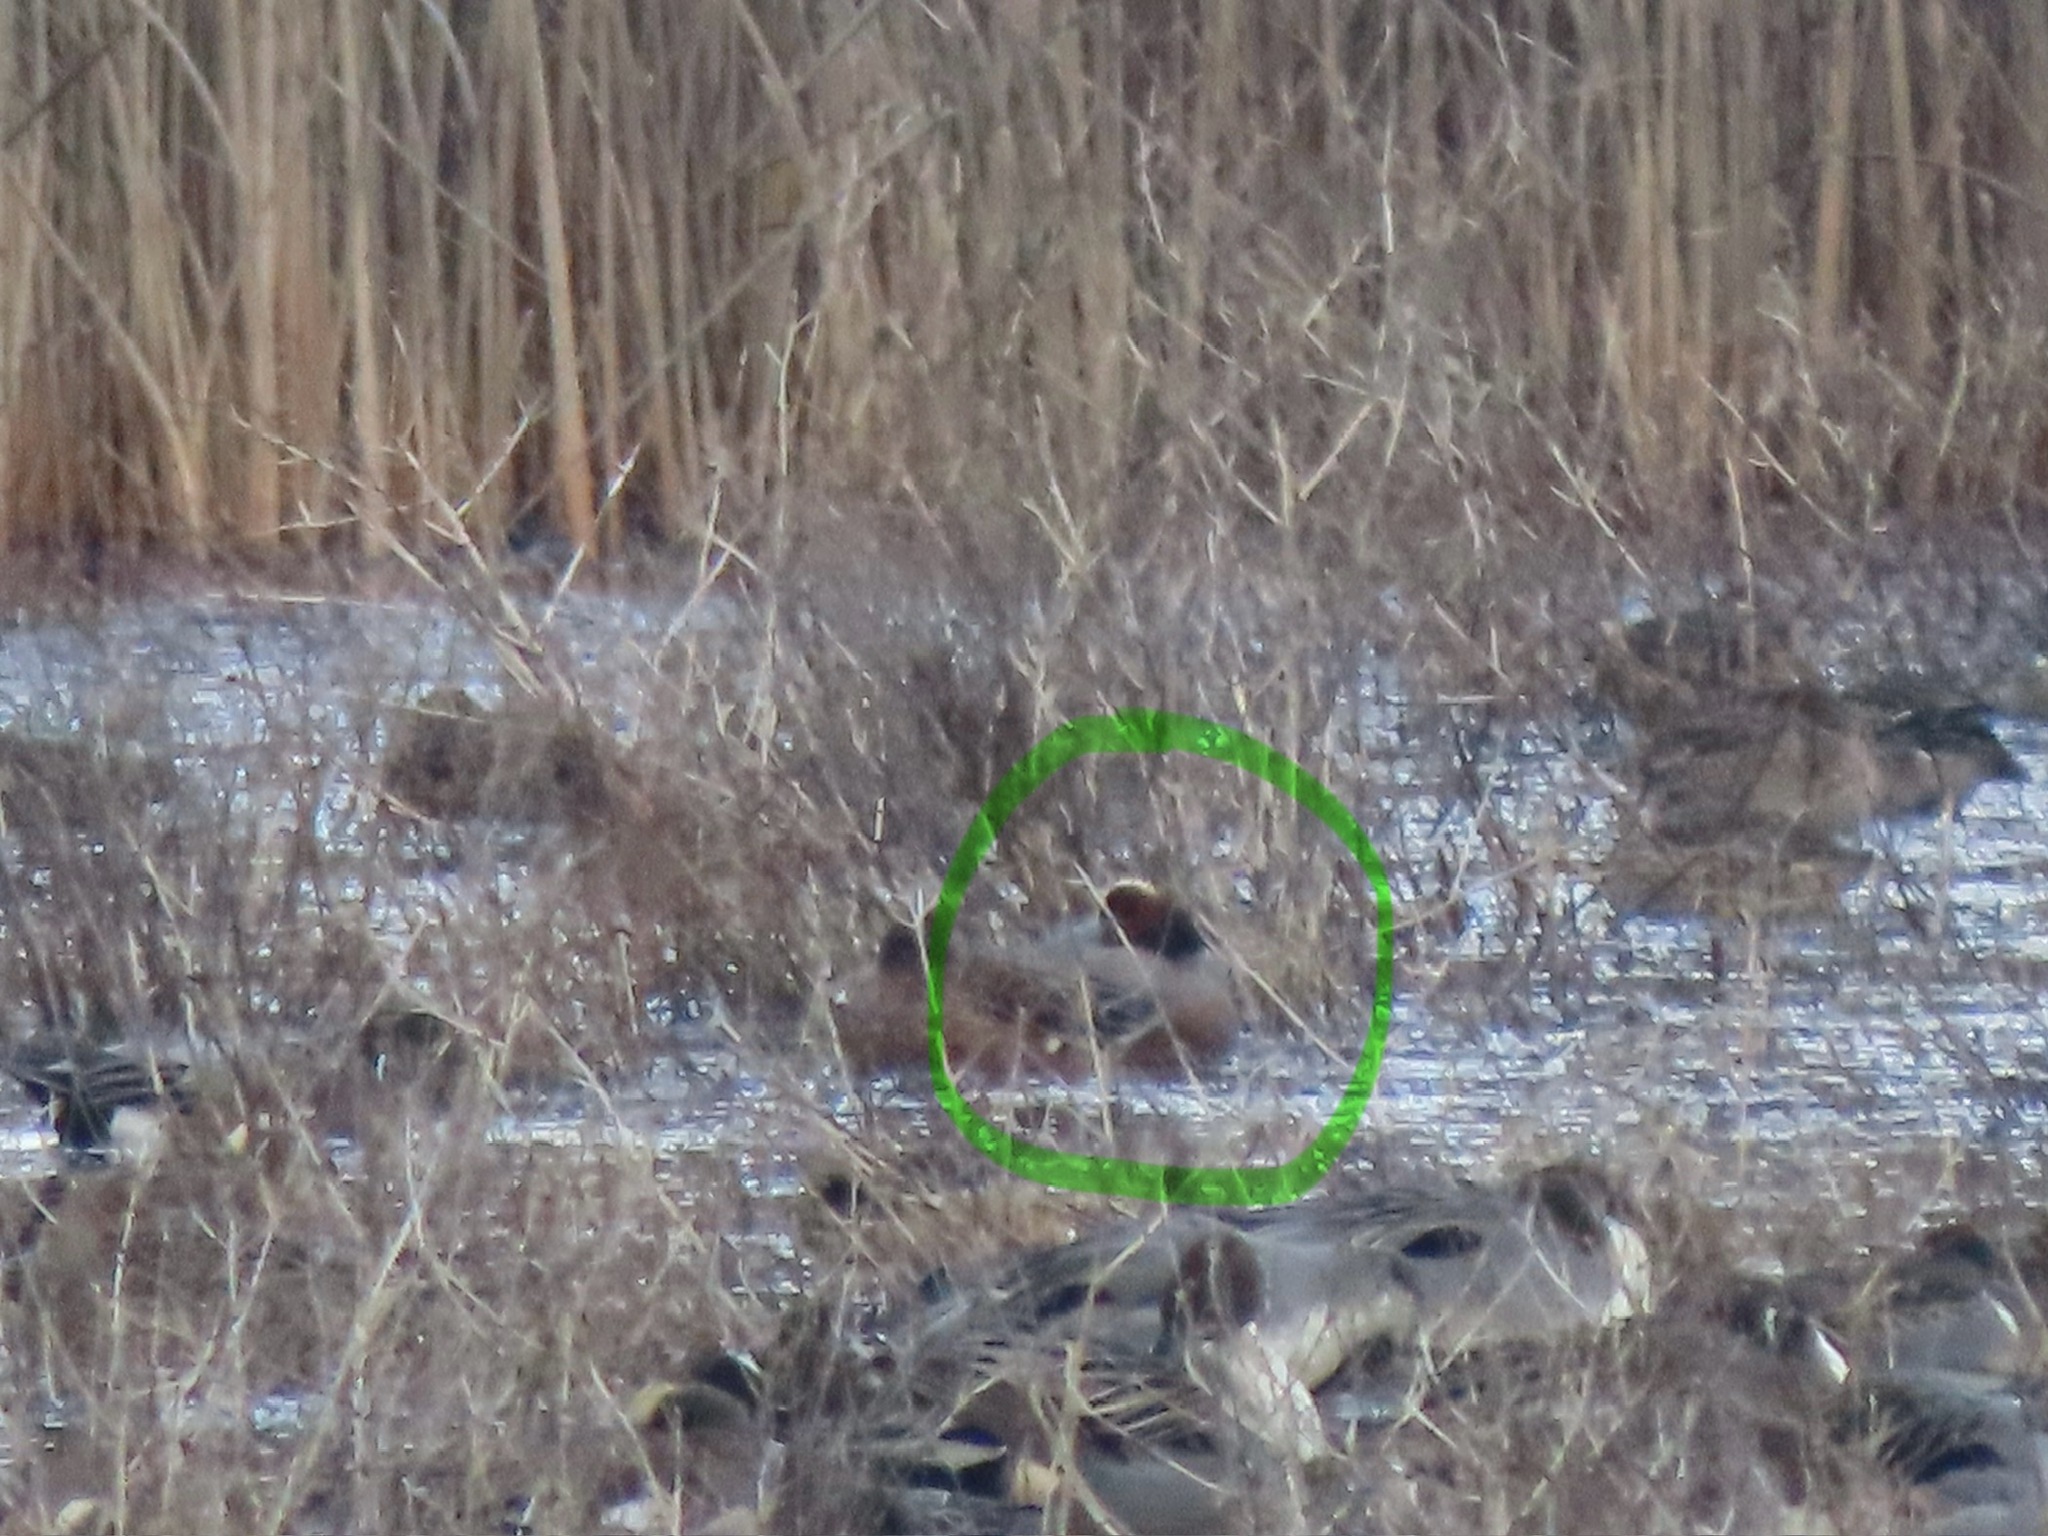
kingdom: Animalia
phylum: Chordata
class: Aves
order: Anseriformes
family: Anatidae
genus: Mareca
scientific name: Mareca penelope
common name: Eurasian wigeon
